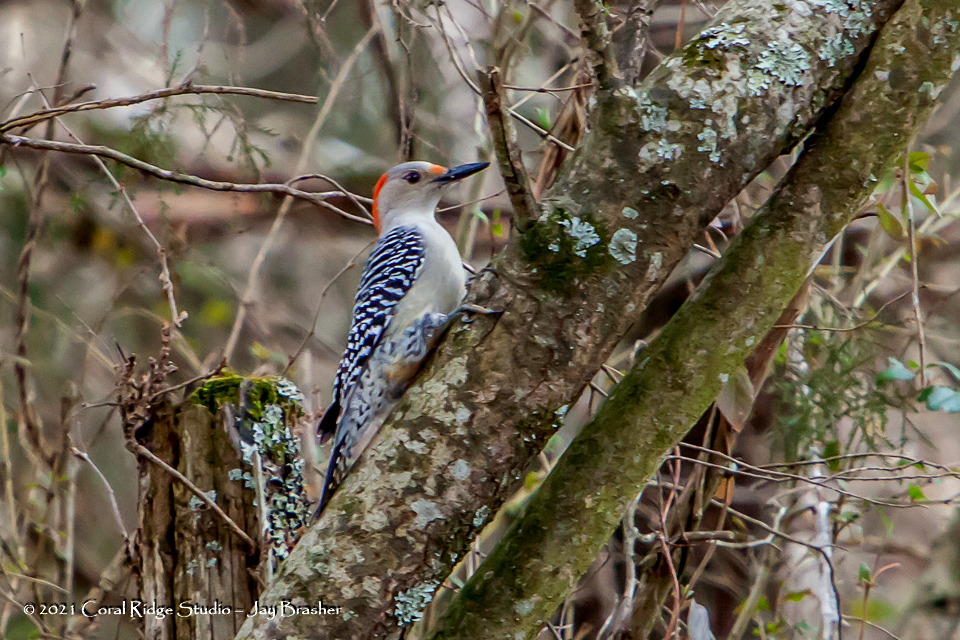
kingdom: Animalia
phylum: Chordata
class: Aves
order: Piciformes
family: Picidae
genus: Melanerpes
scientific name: Melanerpes carolinus
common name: Red-bellied woodpecker
